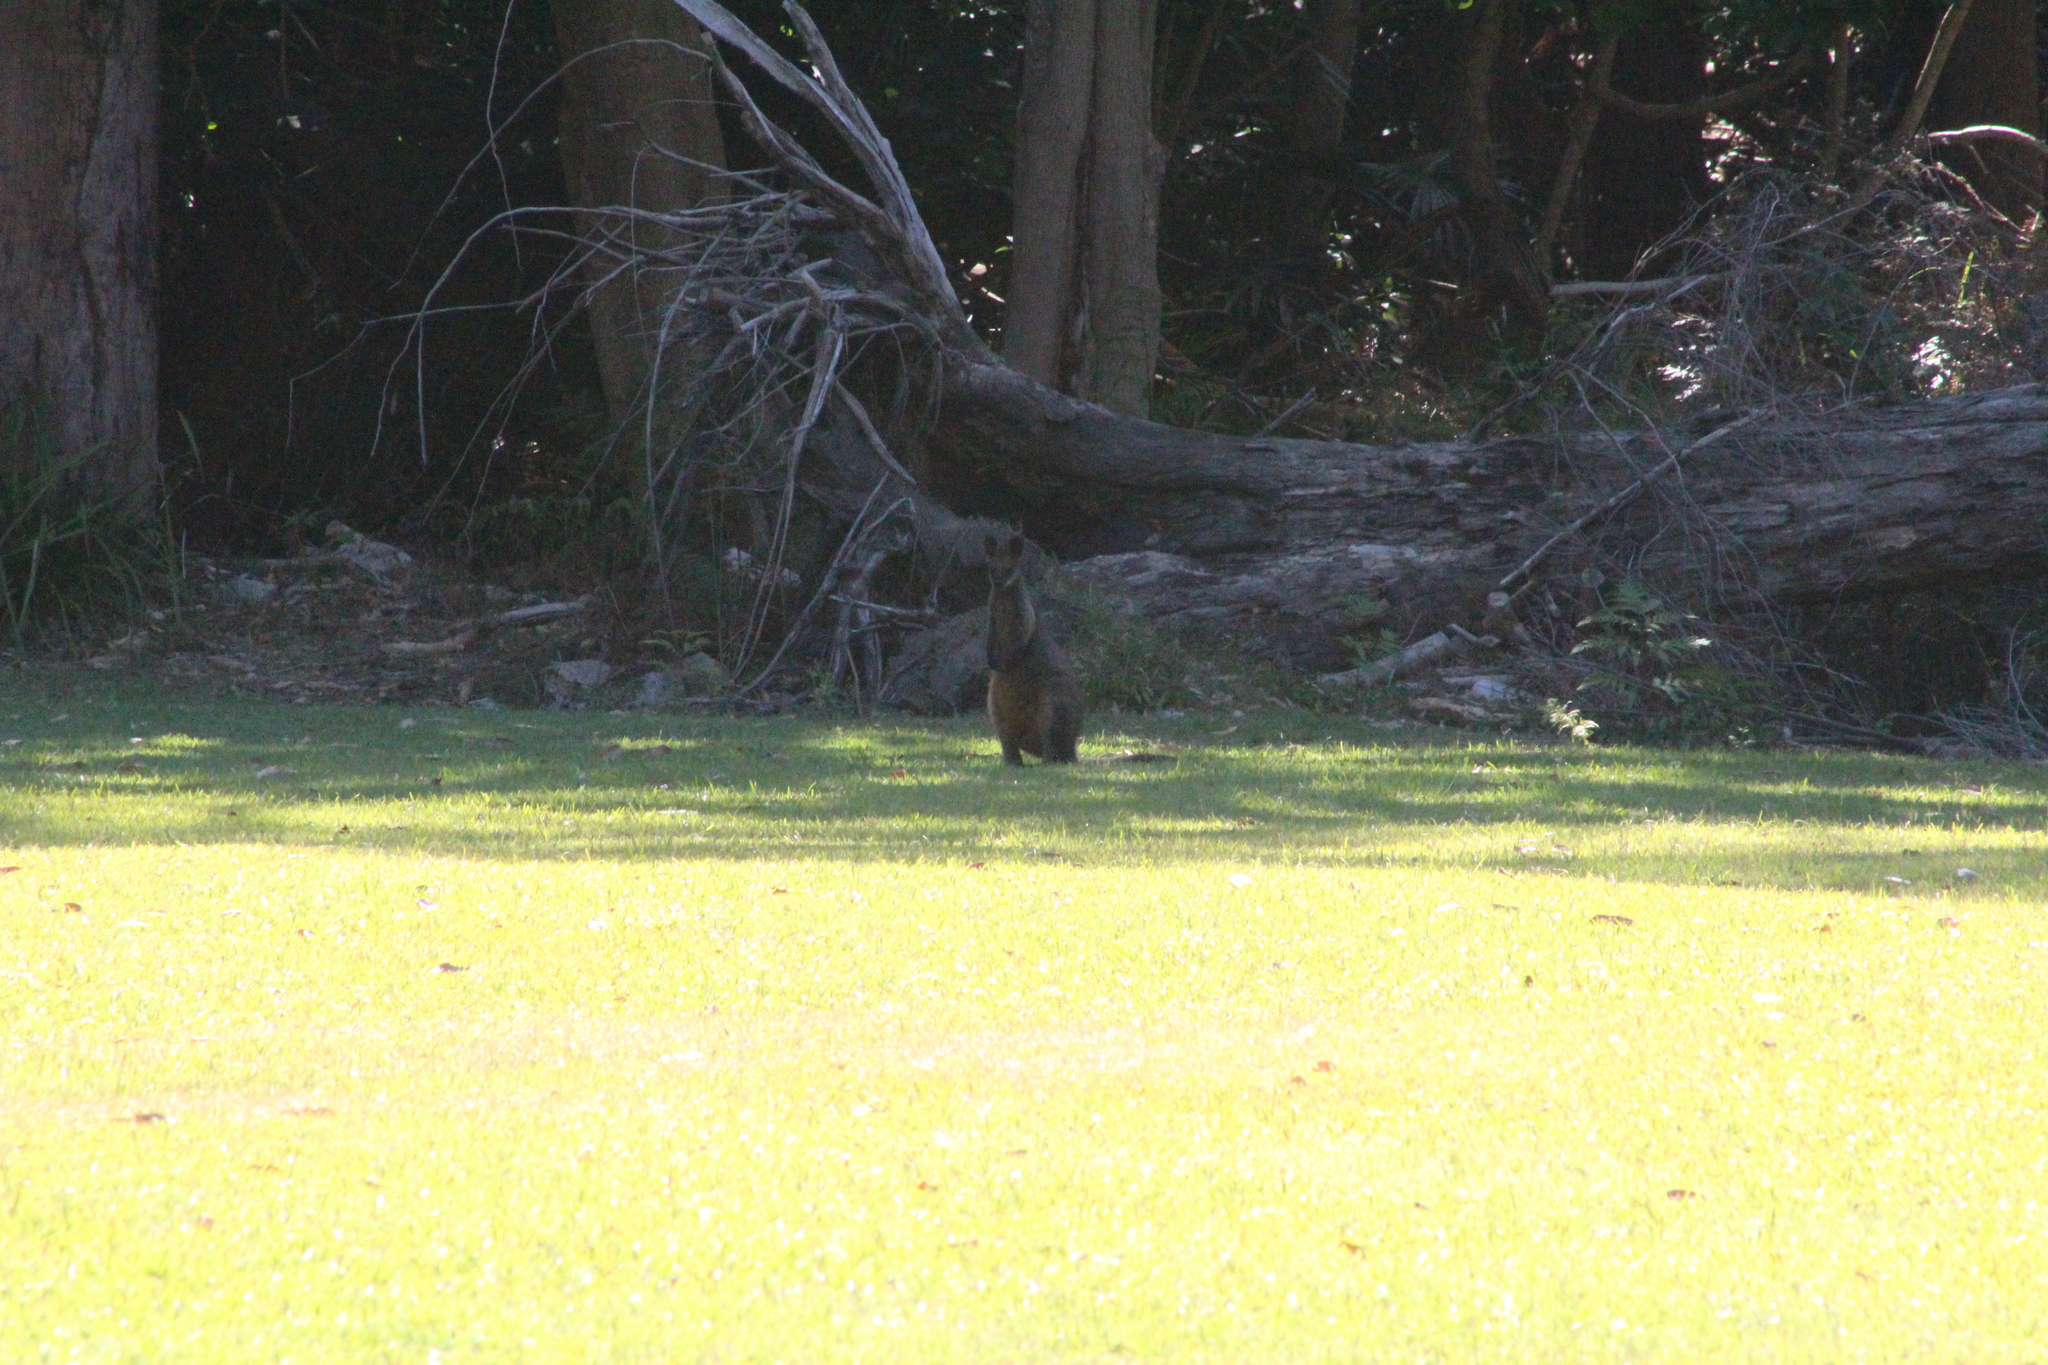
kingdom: Animalia
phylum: Chordata
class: Mammalia
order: Diprotodontia
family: Macropodidae
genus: Wallabia
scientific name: Wallabia bicolor
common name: Swamp wallaby
